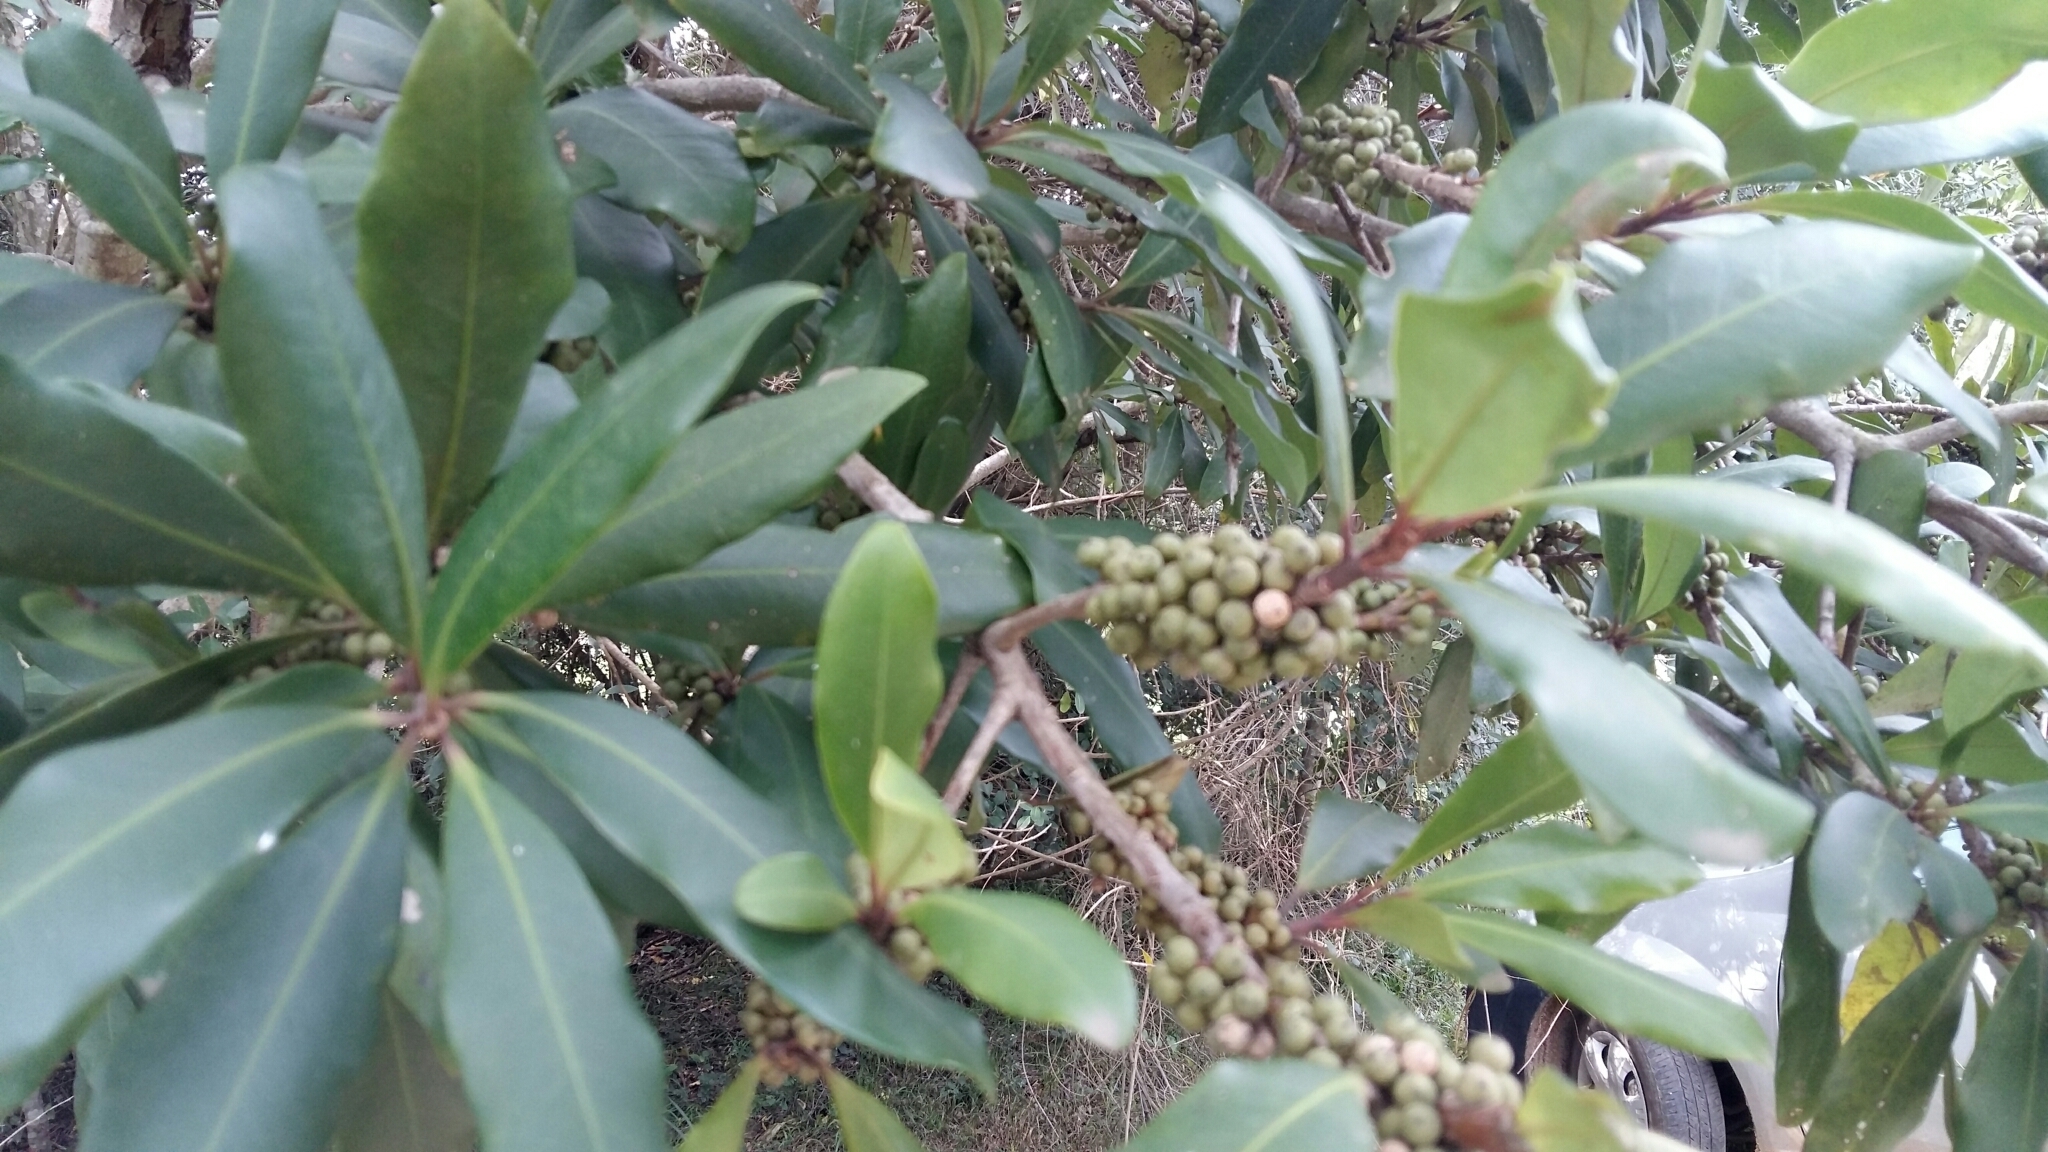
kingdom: Plantae
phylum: Tracheophyta
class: Magnoliopsida
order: Ericales
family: Primulaceae
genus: Myrsine
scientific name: Myrsine melanophloeos
